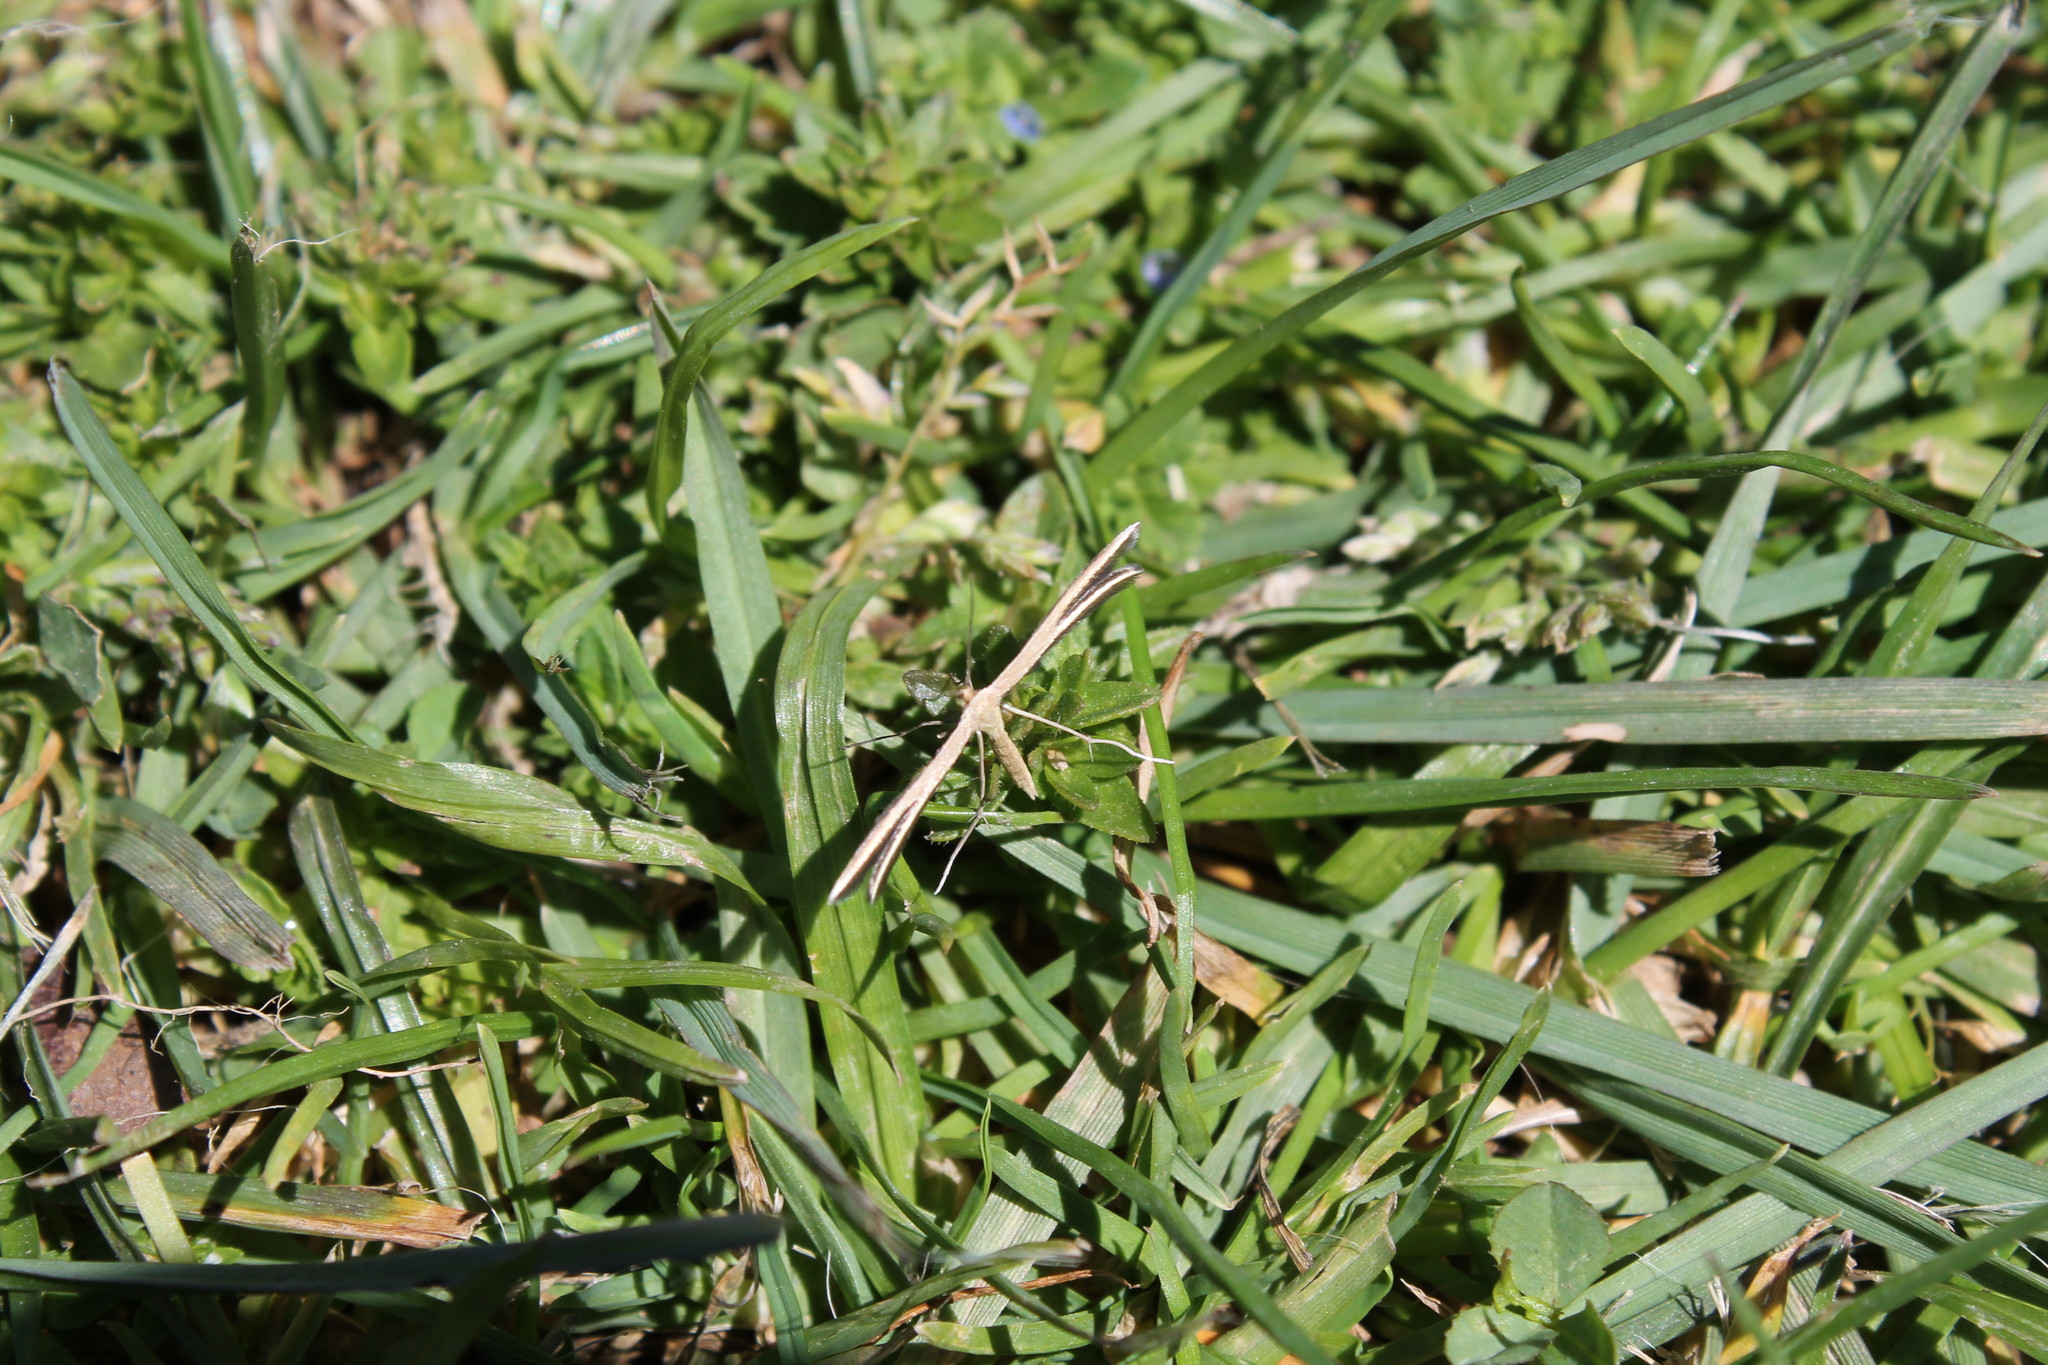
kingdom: Animalia
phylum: Arthropoda
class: Insecta
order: Lepidoptera
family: Pterophoridae
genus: Pterophorus
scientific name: Pterophorus innotatalis
